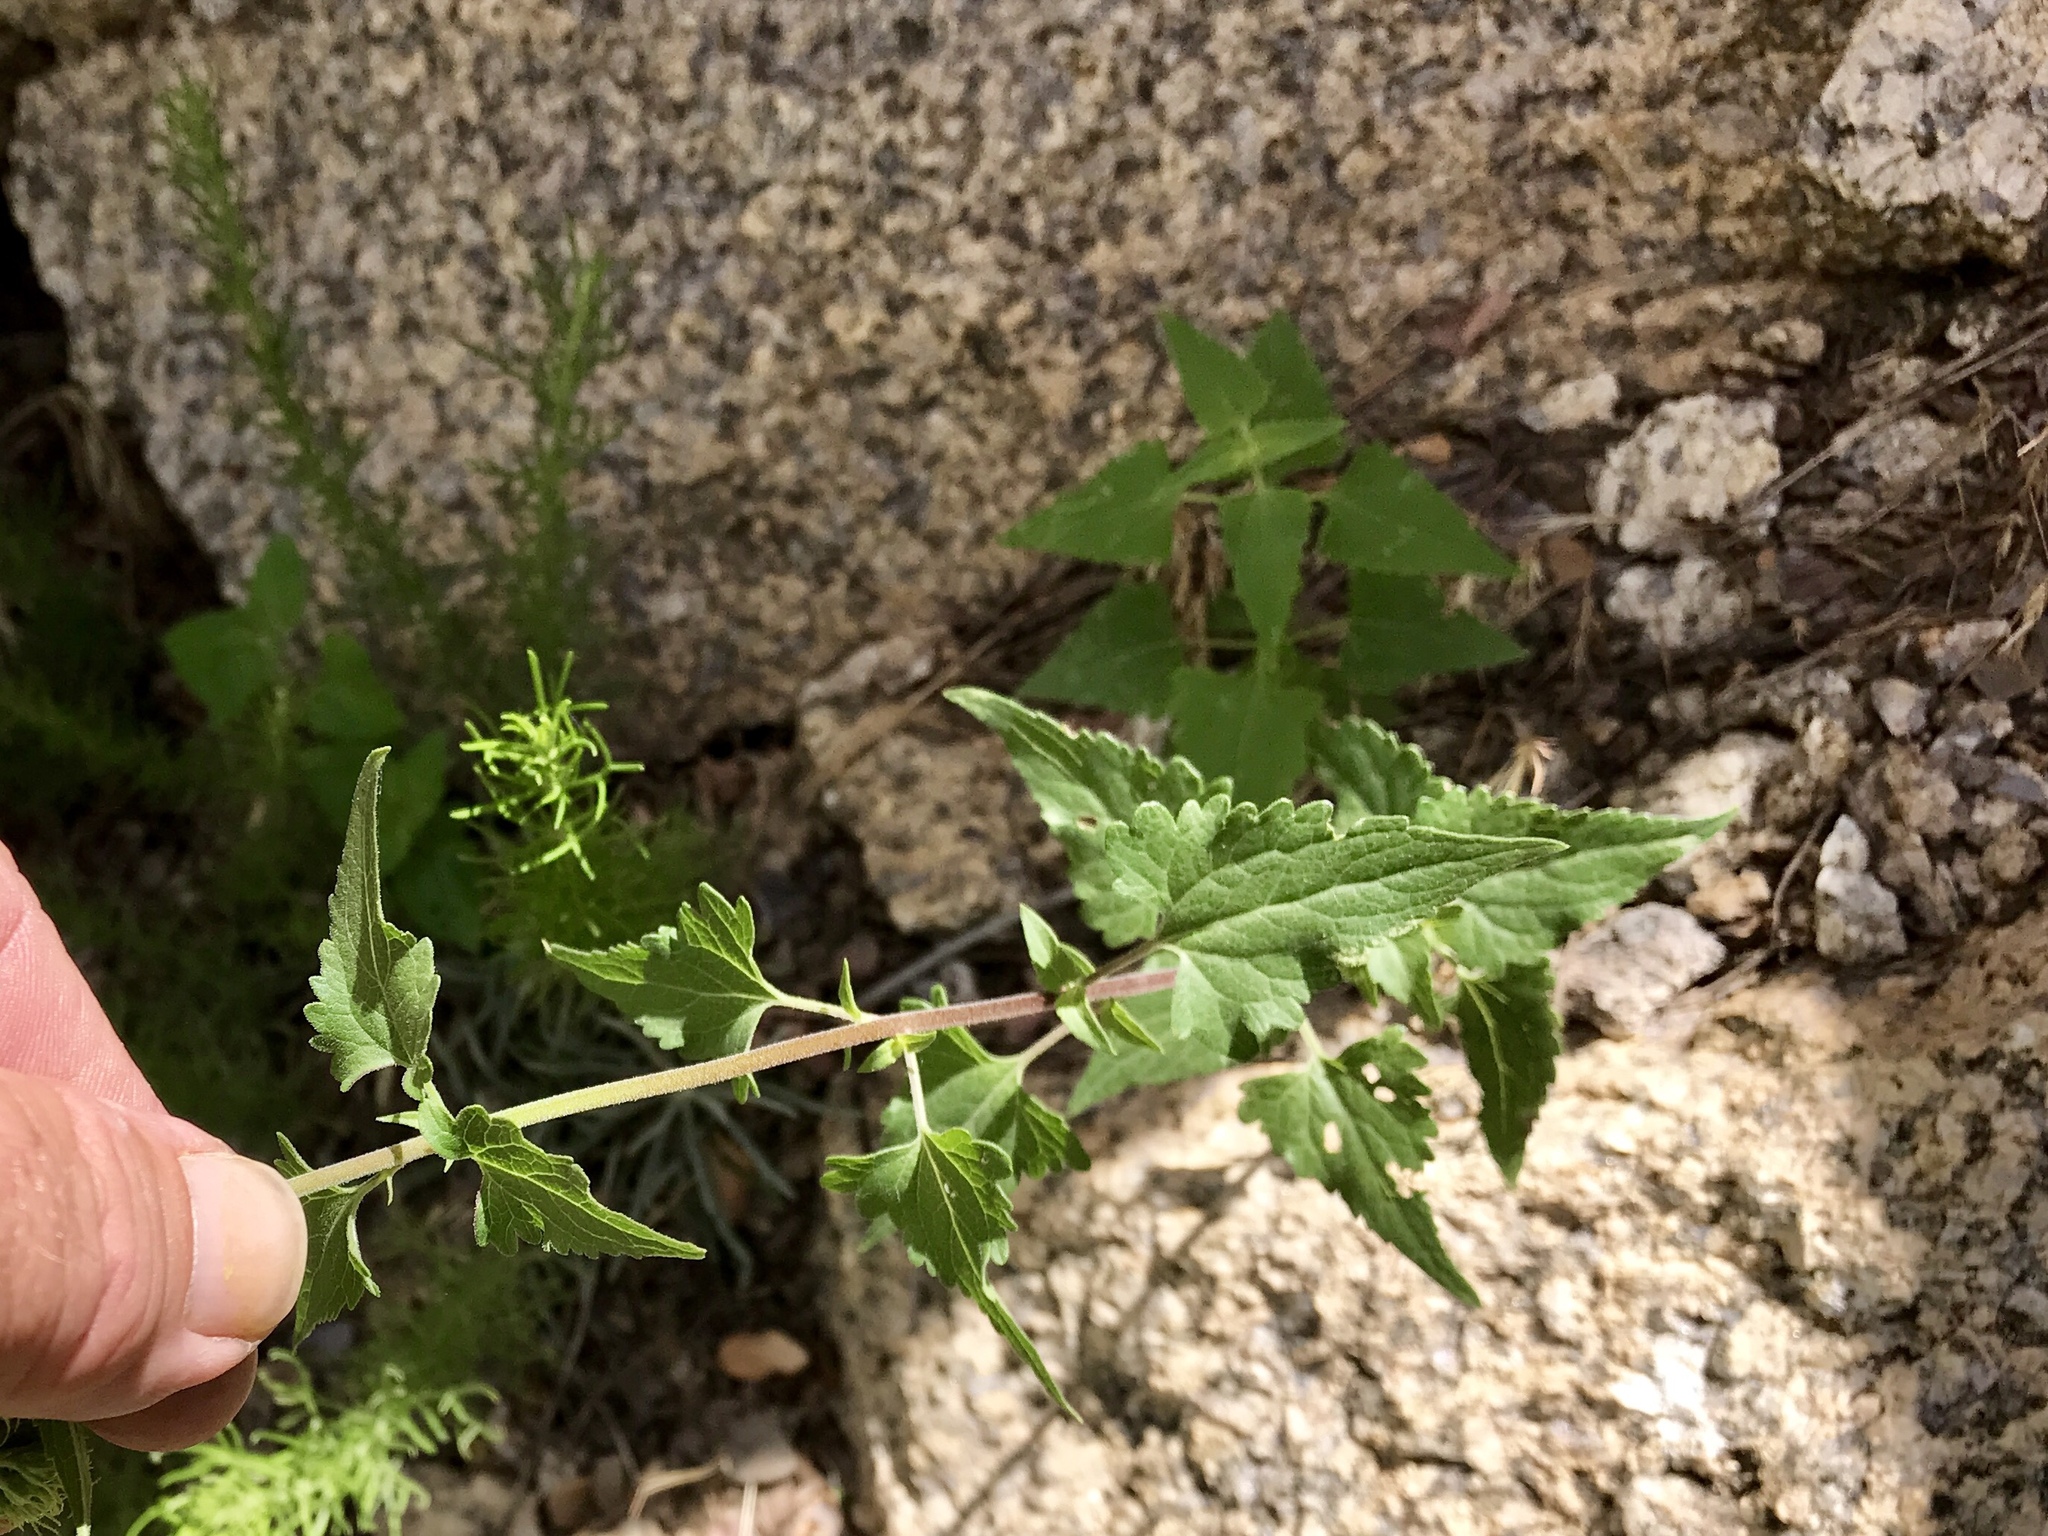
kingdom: Plantae
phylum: Tracheophyta
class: Magnoliopsida
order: Asterales
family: Asteraceae
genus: Brickellia
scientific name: Brickellia coulteri
